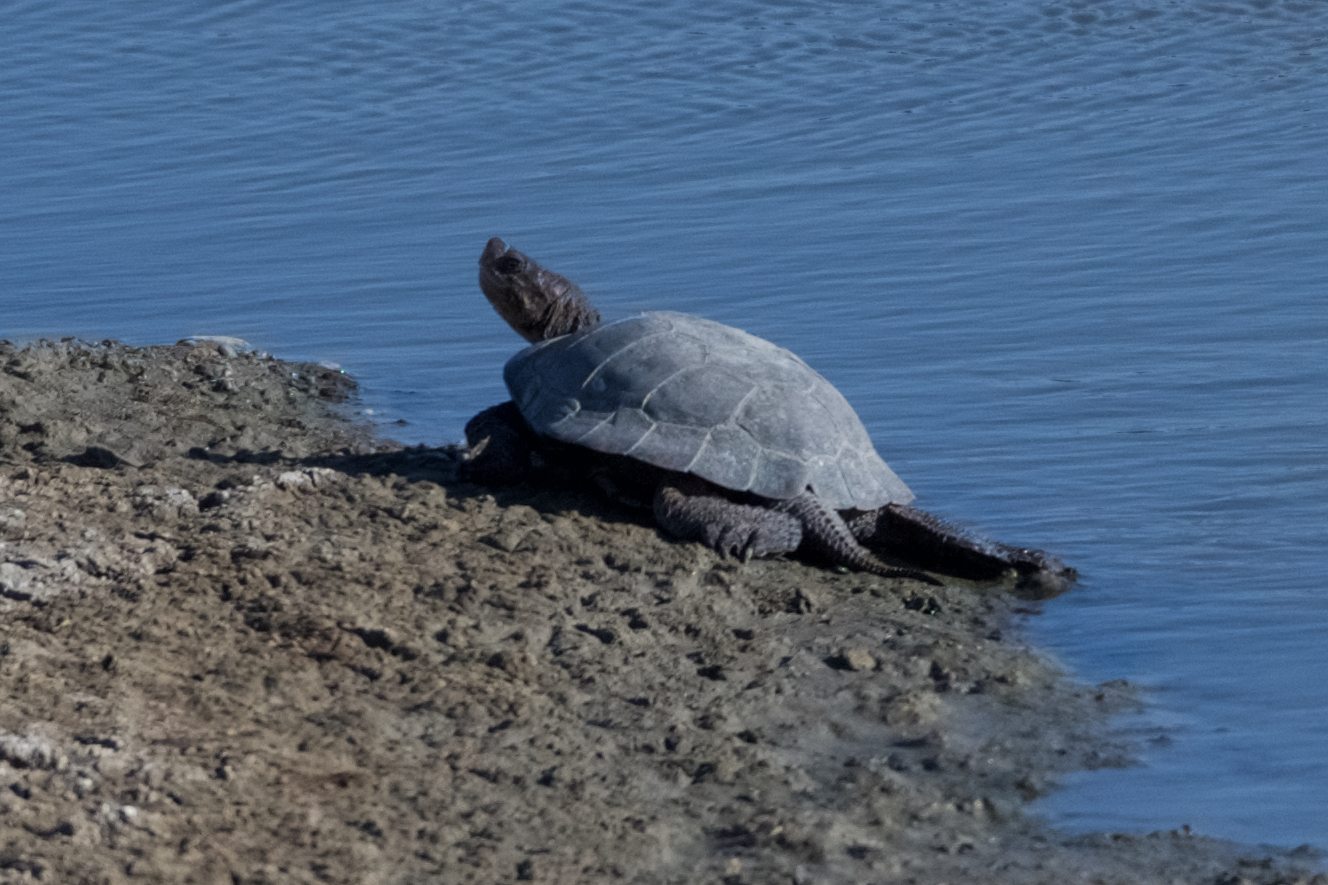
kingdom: Animalia
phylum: Chordata
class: Testudines
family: Emydidae
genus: Actinemys
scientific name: Actinemys marmorata
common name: Western pond turtle
